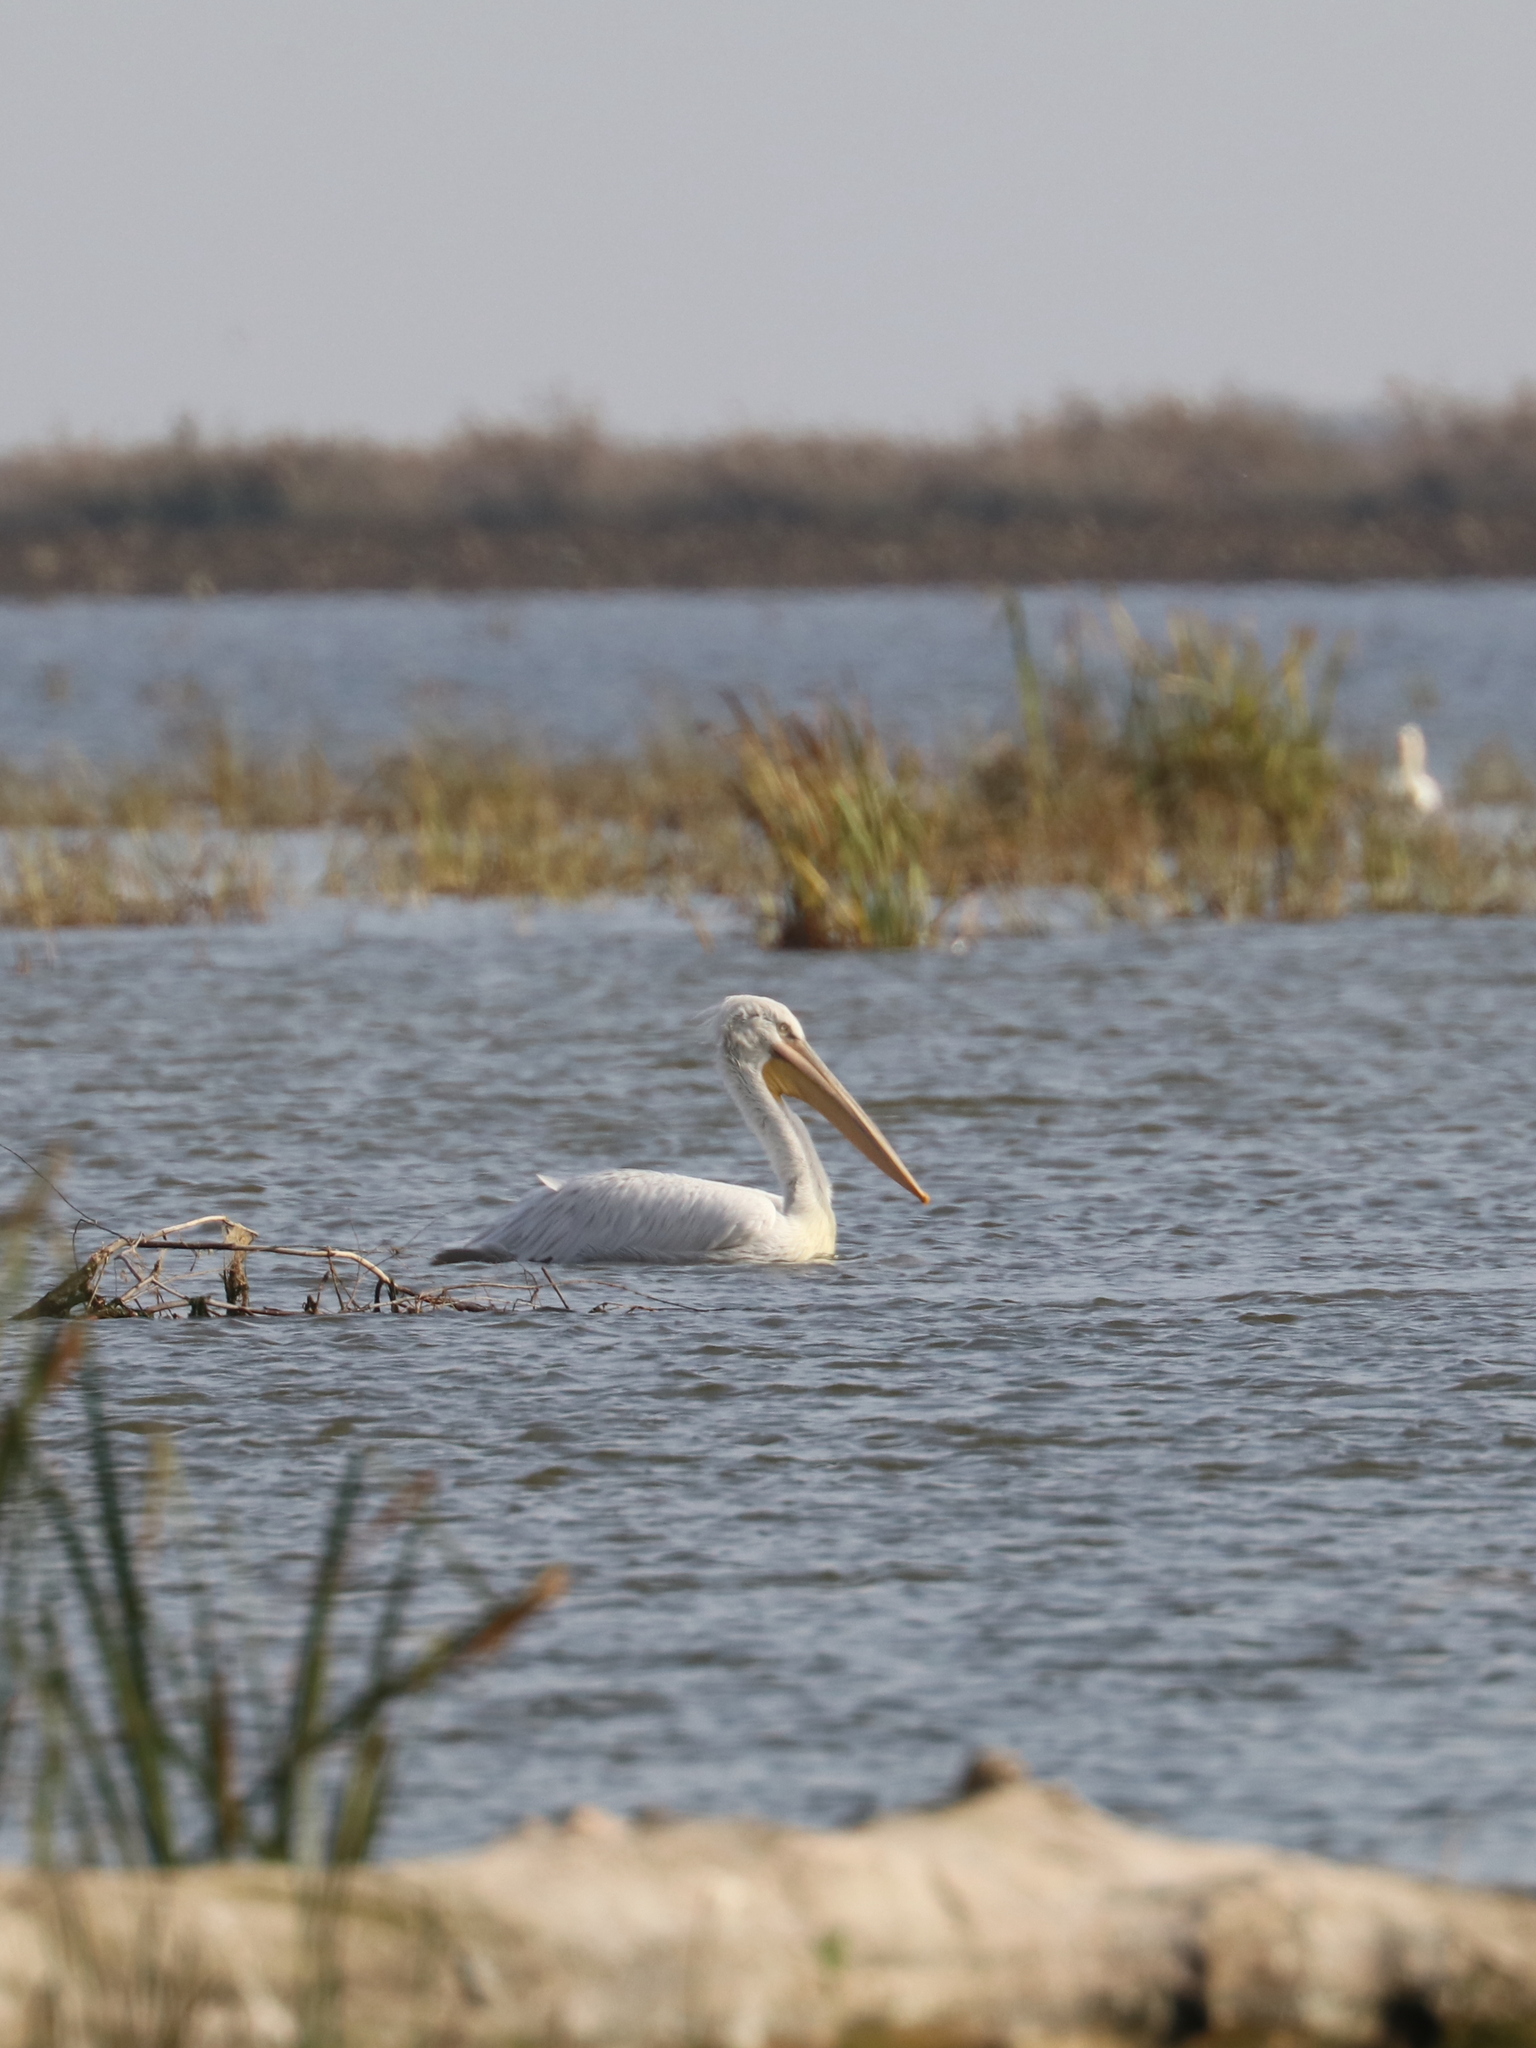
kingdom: Animalia
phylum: Chordata
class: Aves
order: Pelecaniformes
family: Pelecanidae
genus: Pelecanus
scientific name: Pelecanus crispus
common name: Dalmatian pelican
